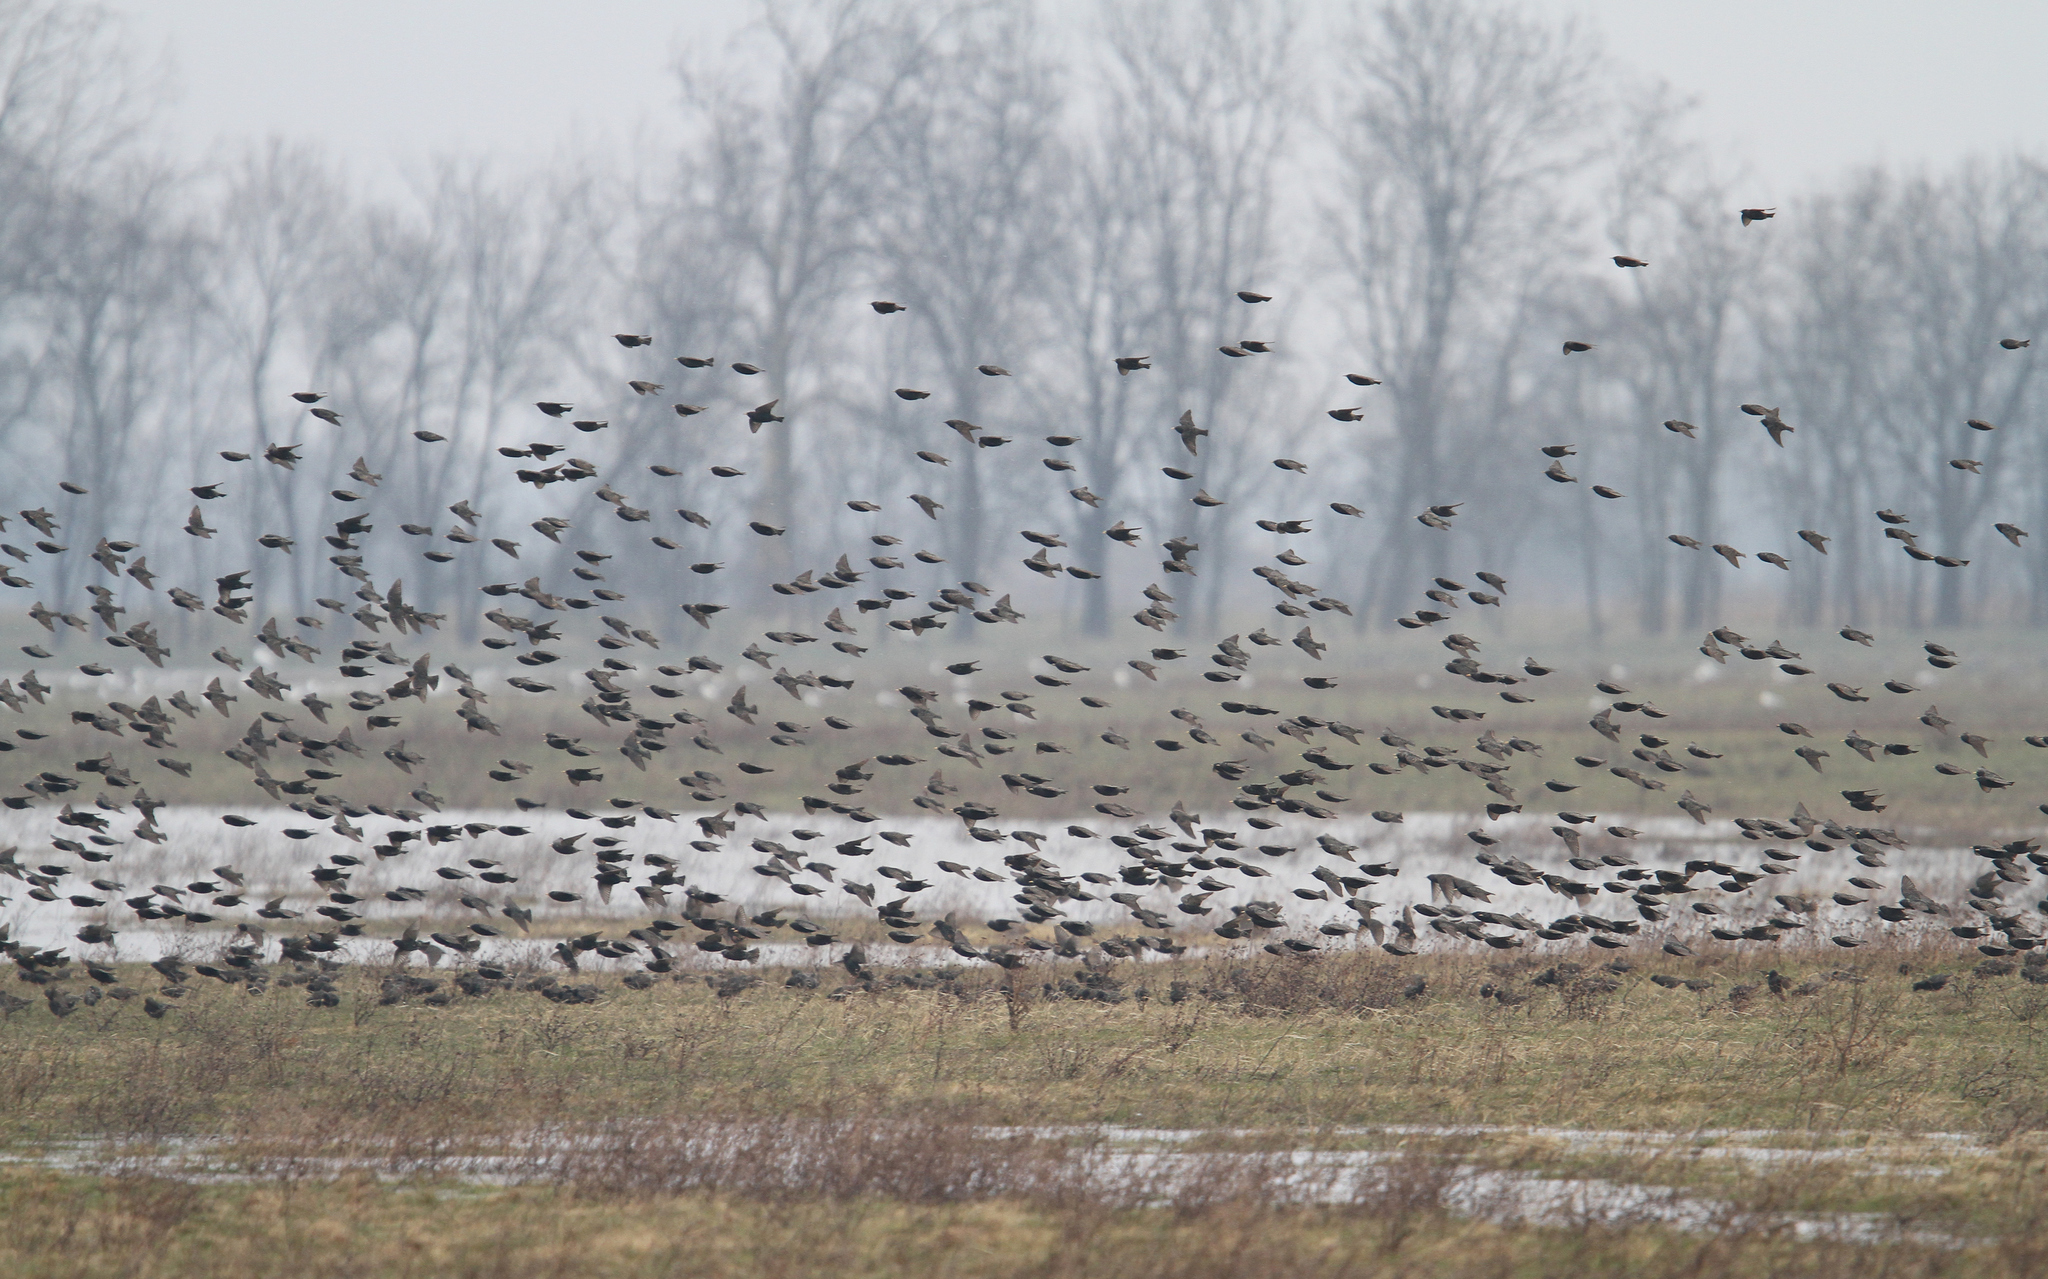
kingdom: Animalia
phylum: Chordata
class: Aves
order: Passeriformes
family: Sturnidae
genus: Sturnus
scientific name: Sturnus vulgaris
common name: Common starling
